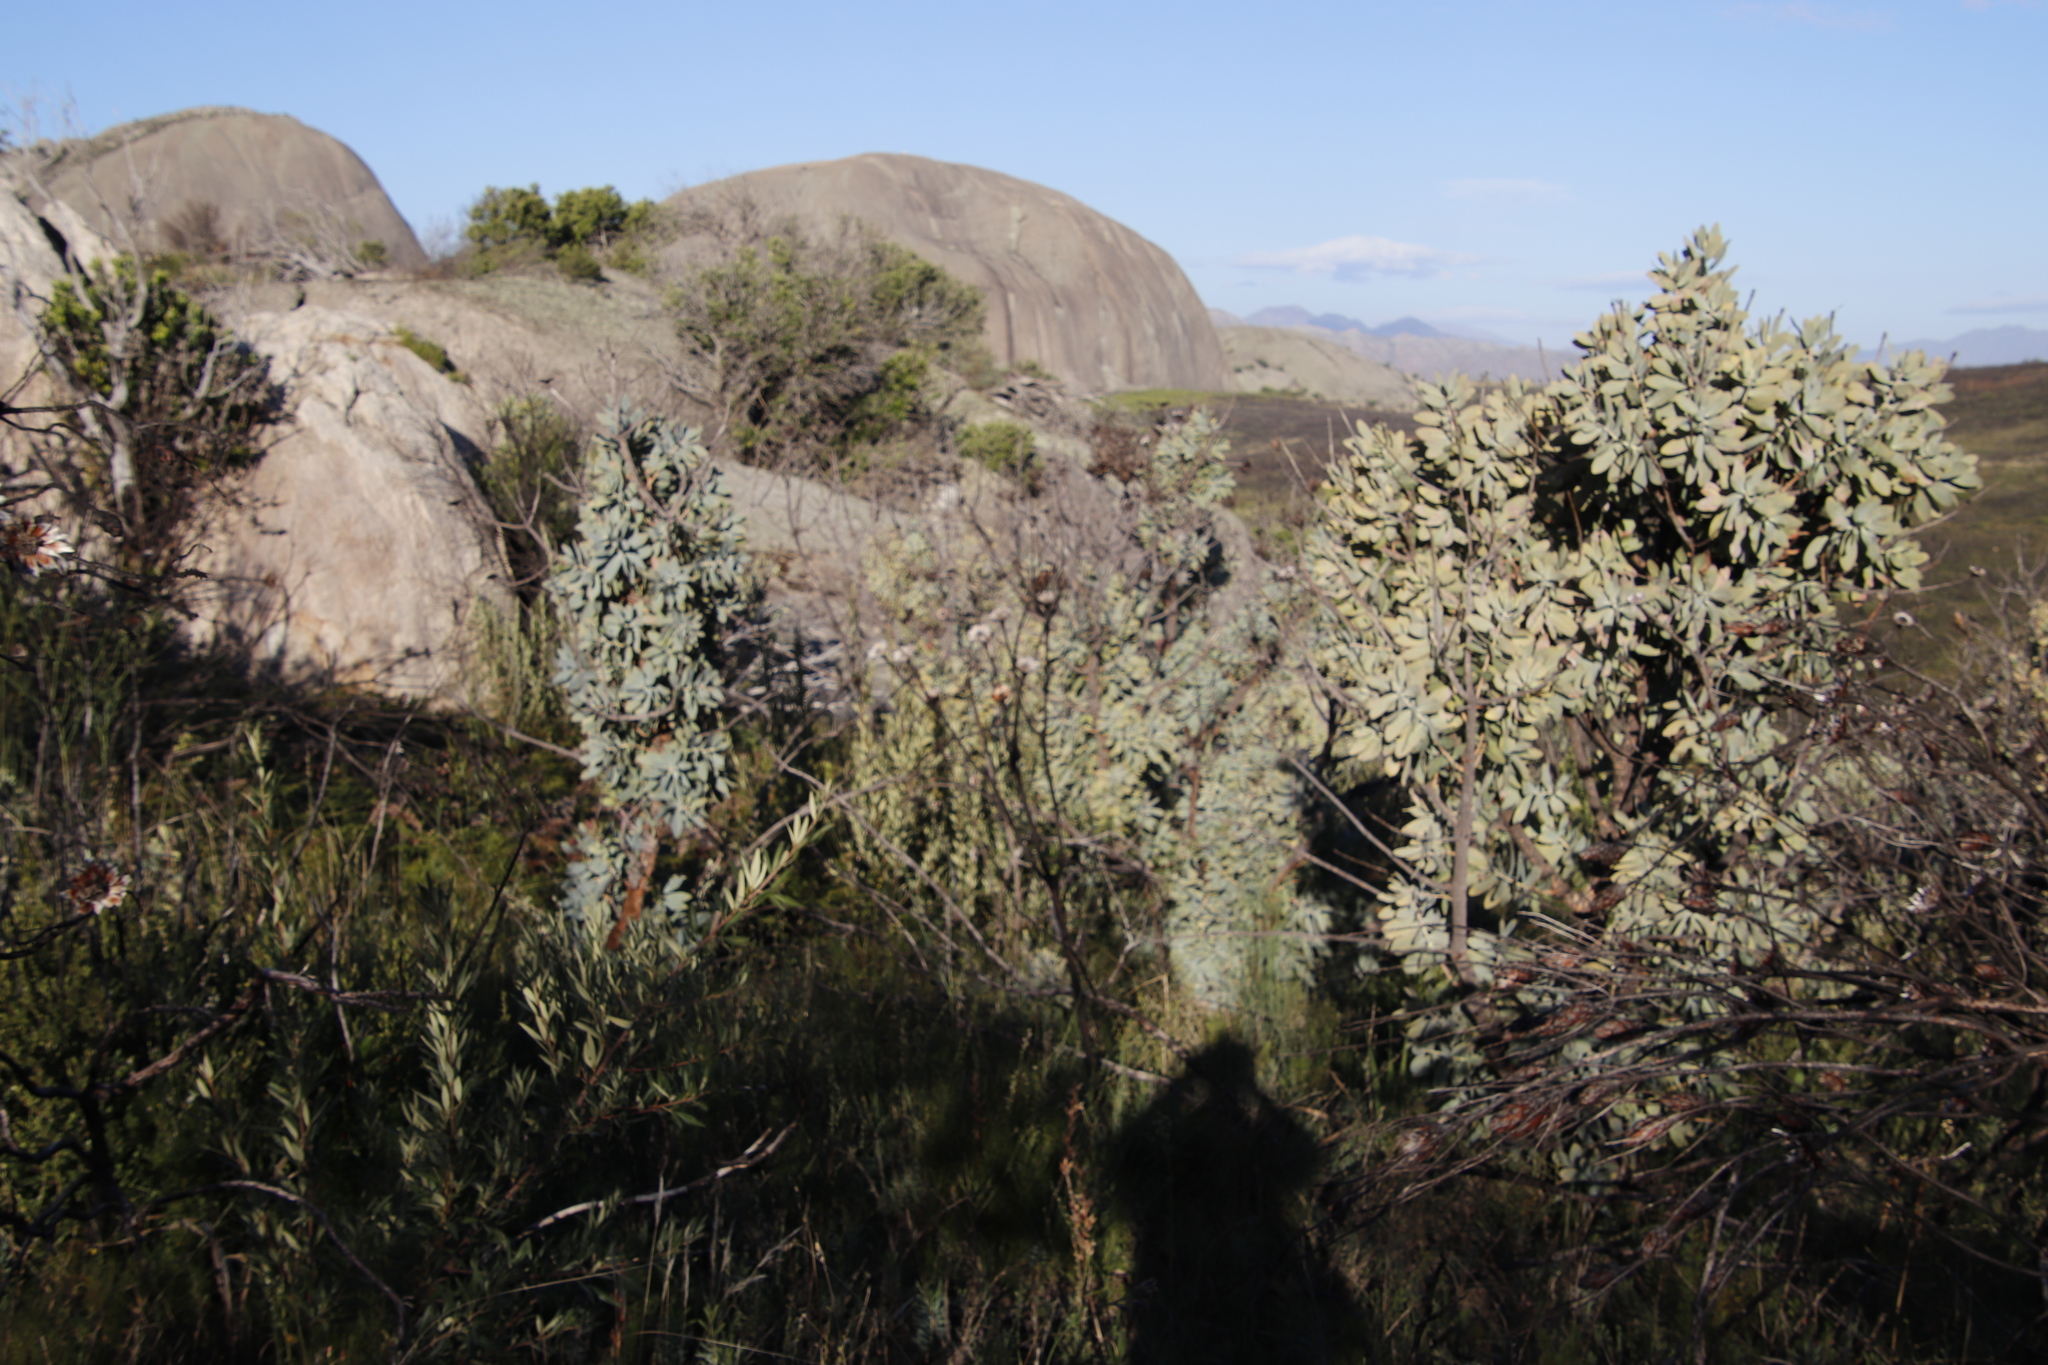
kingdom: Plantae
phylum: Tracheophyta
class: Magnoliopsida
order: Proteales
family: Proteaceae
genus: Protea
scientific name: Protea nitida
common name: Tree protea
